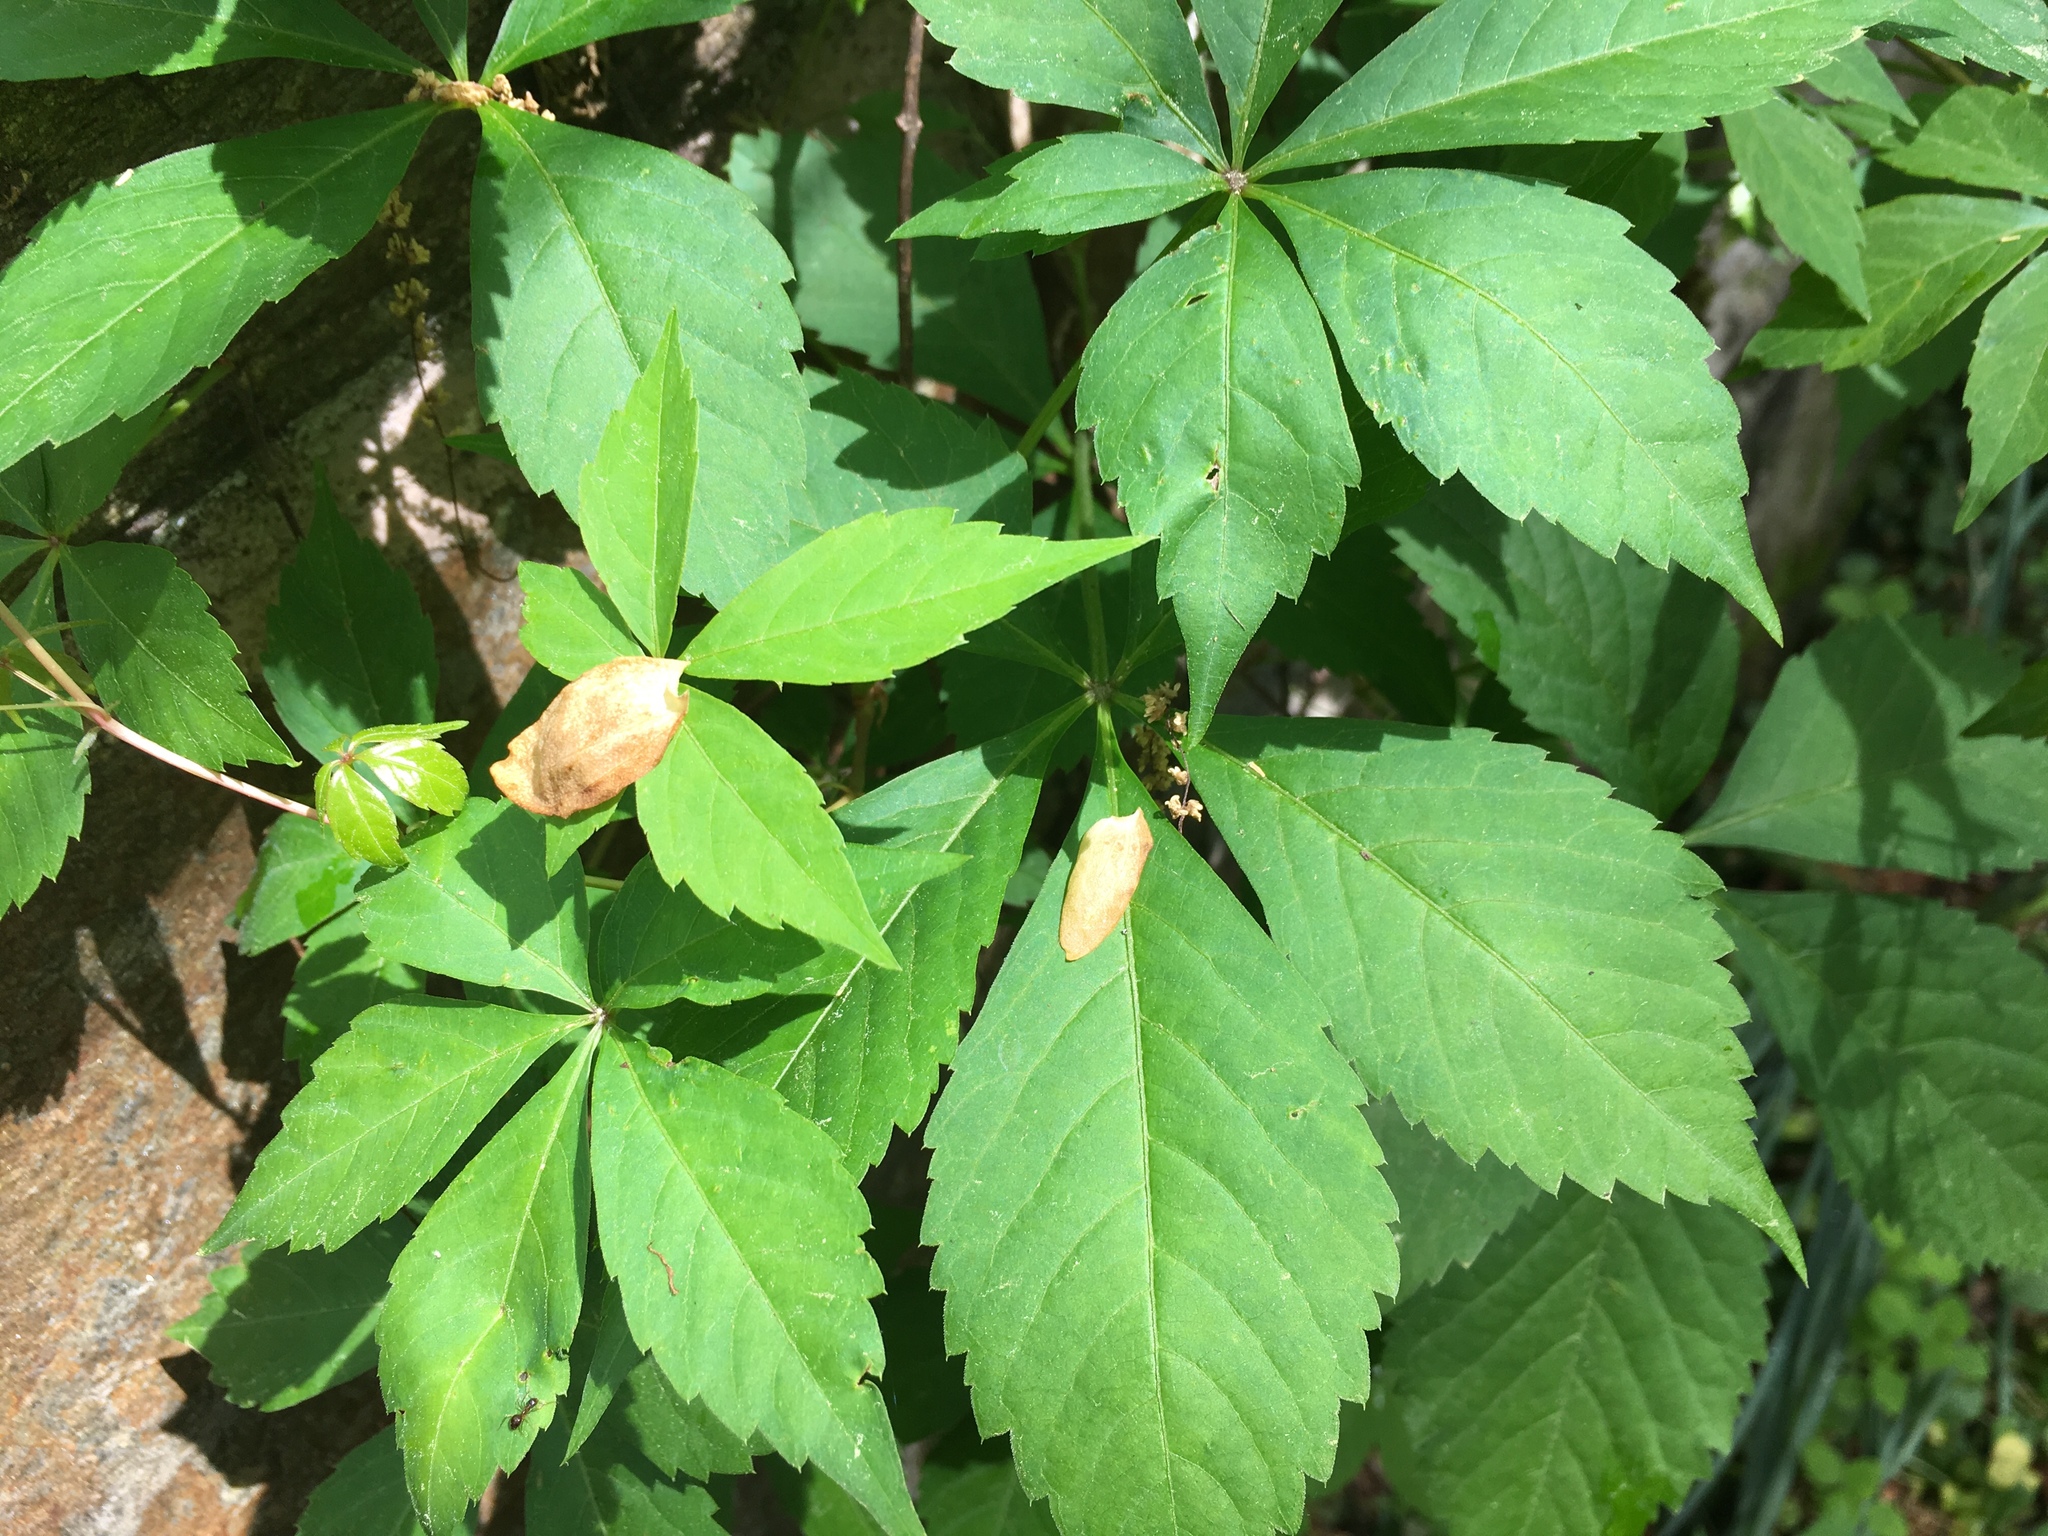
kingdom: Plantae
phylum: Tracheophyta
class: Magnoliopsida
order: Vitales
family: Vitaceae
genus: Parthenocissus
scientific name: Parthenocissus quinquefolia
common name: Virginia-creeper
